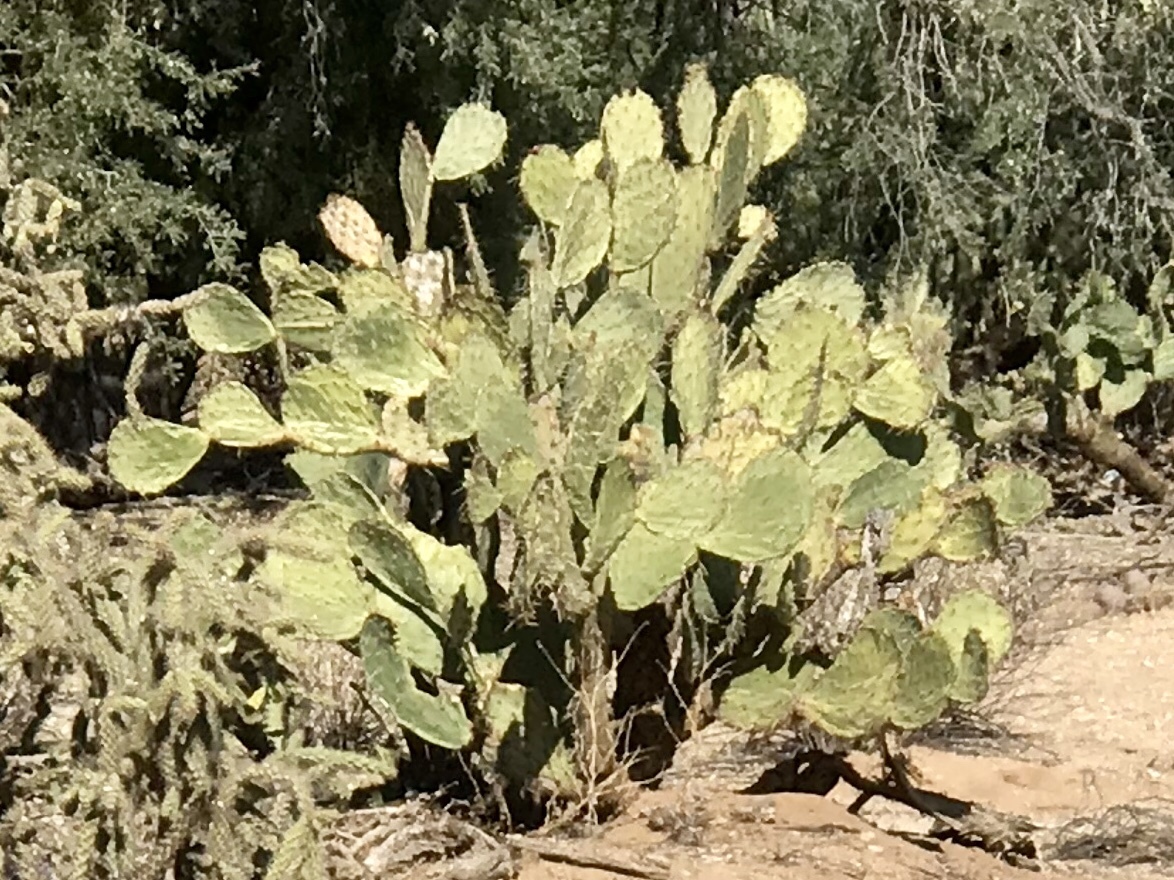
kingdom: Plantae
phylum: Tracheophyta
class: Magnoliopsida
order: Caryophyllales
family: Cactaceae
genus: Opuntia
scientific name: Opuntia engelmannii
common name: Cactus-apple
